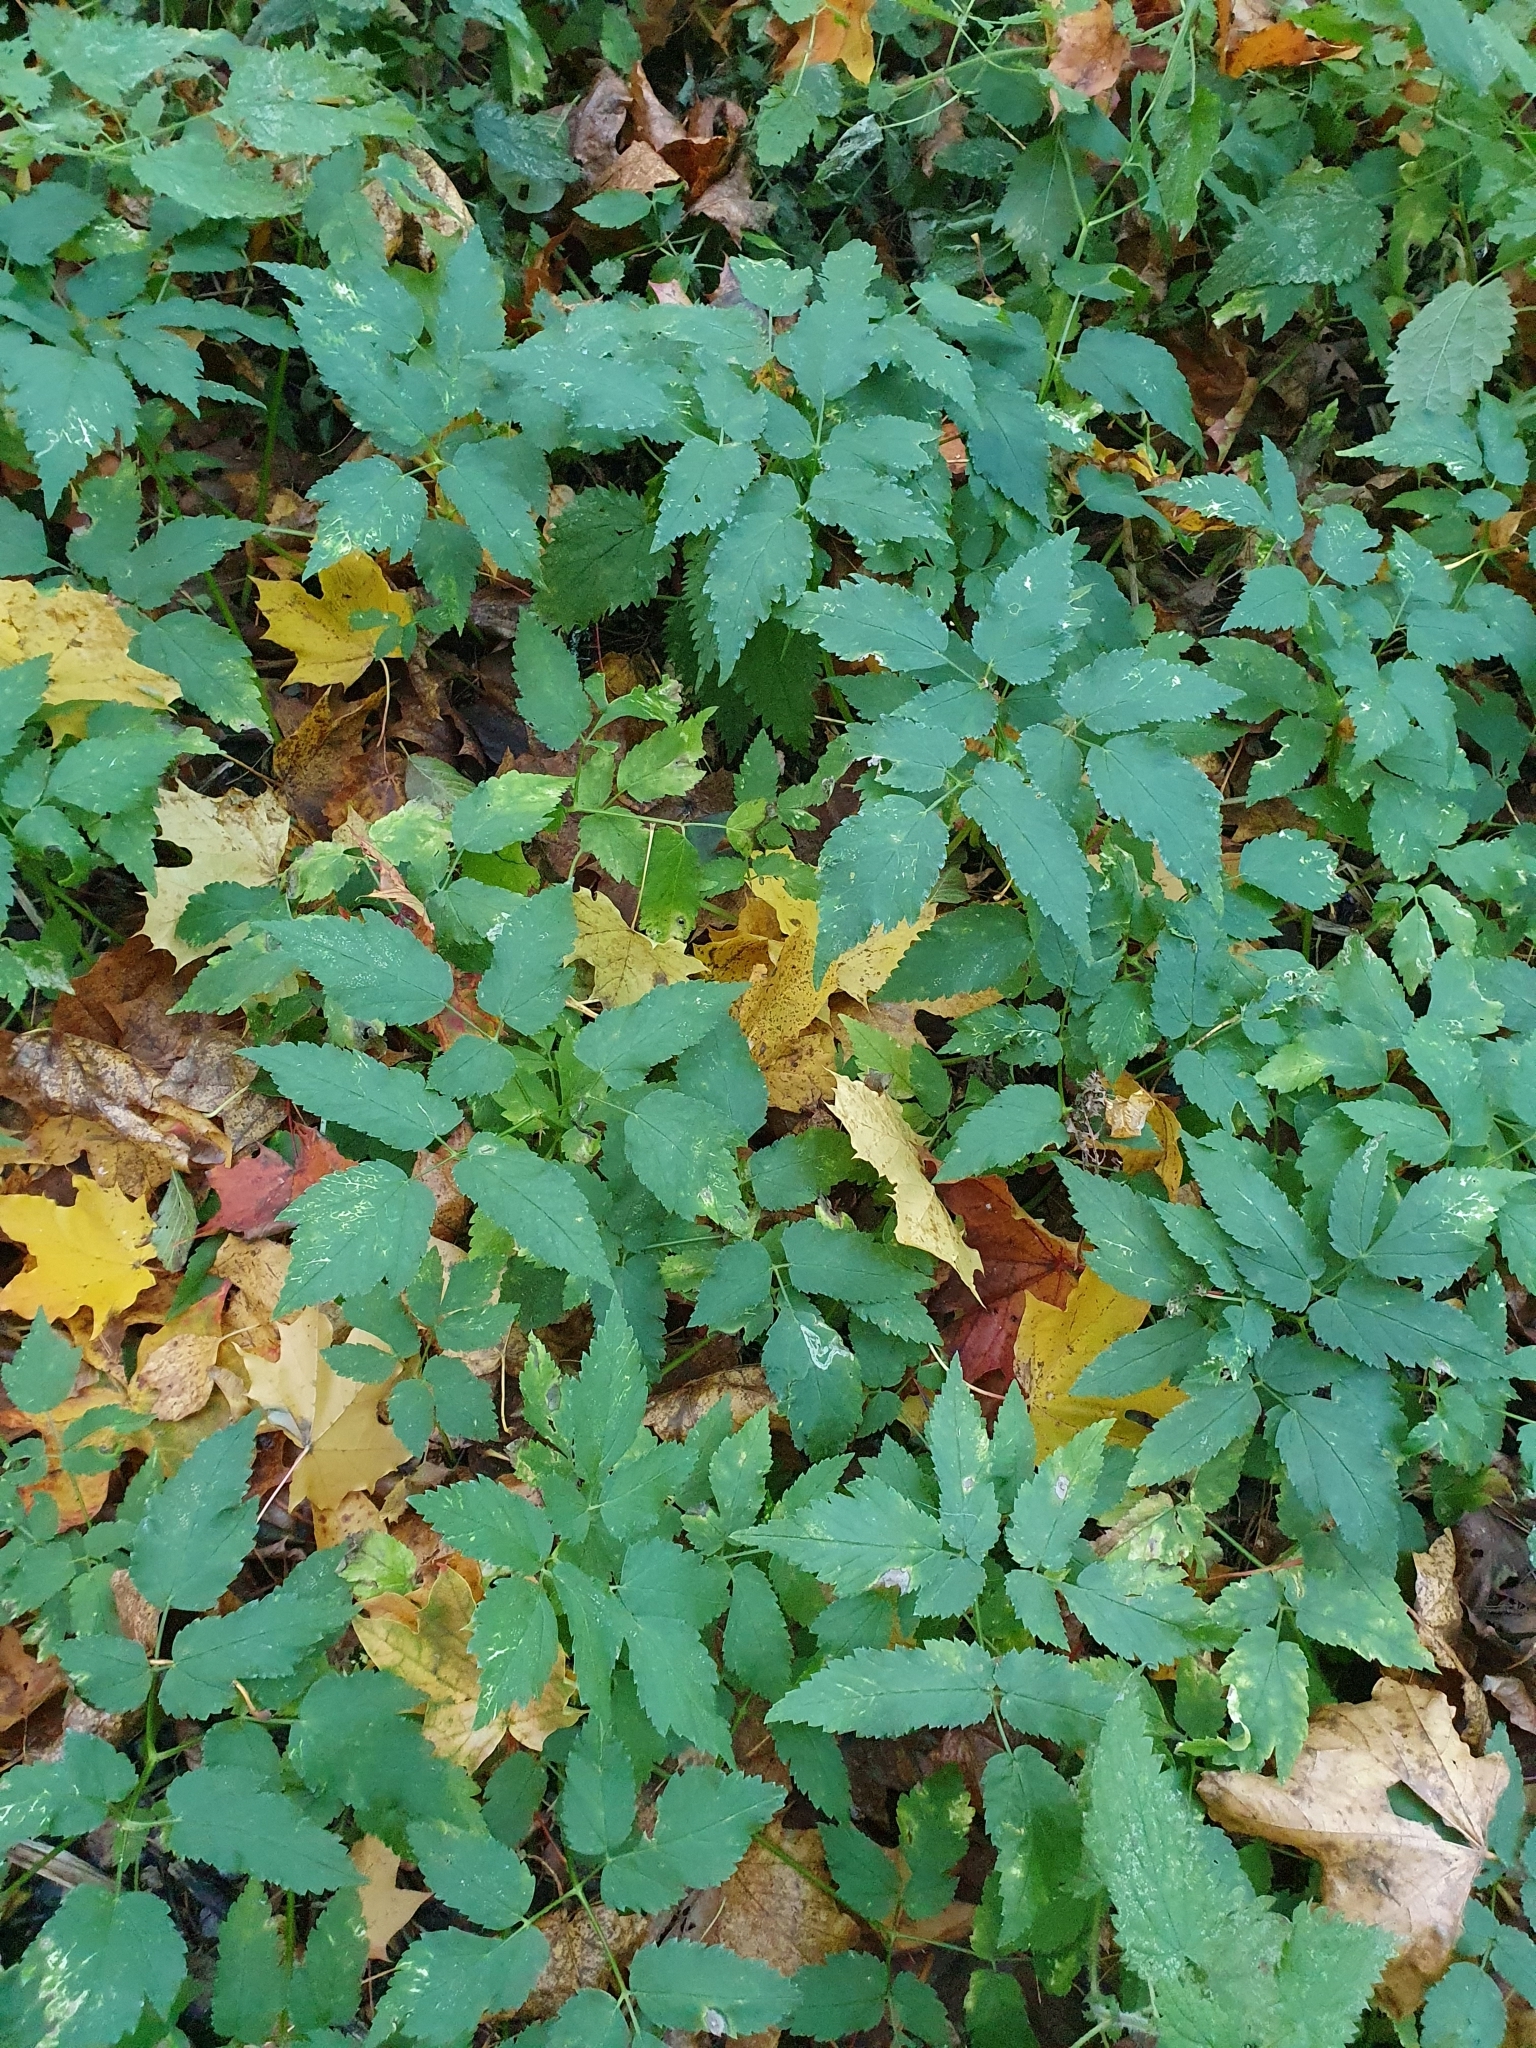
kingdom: Plantae
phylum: Tracheophyta
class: Magnoliopsida
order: Apiales
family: Apiaceae
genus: Aegopodium
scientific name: Aegopodium podagraria
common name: Ground-elder
